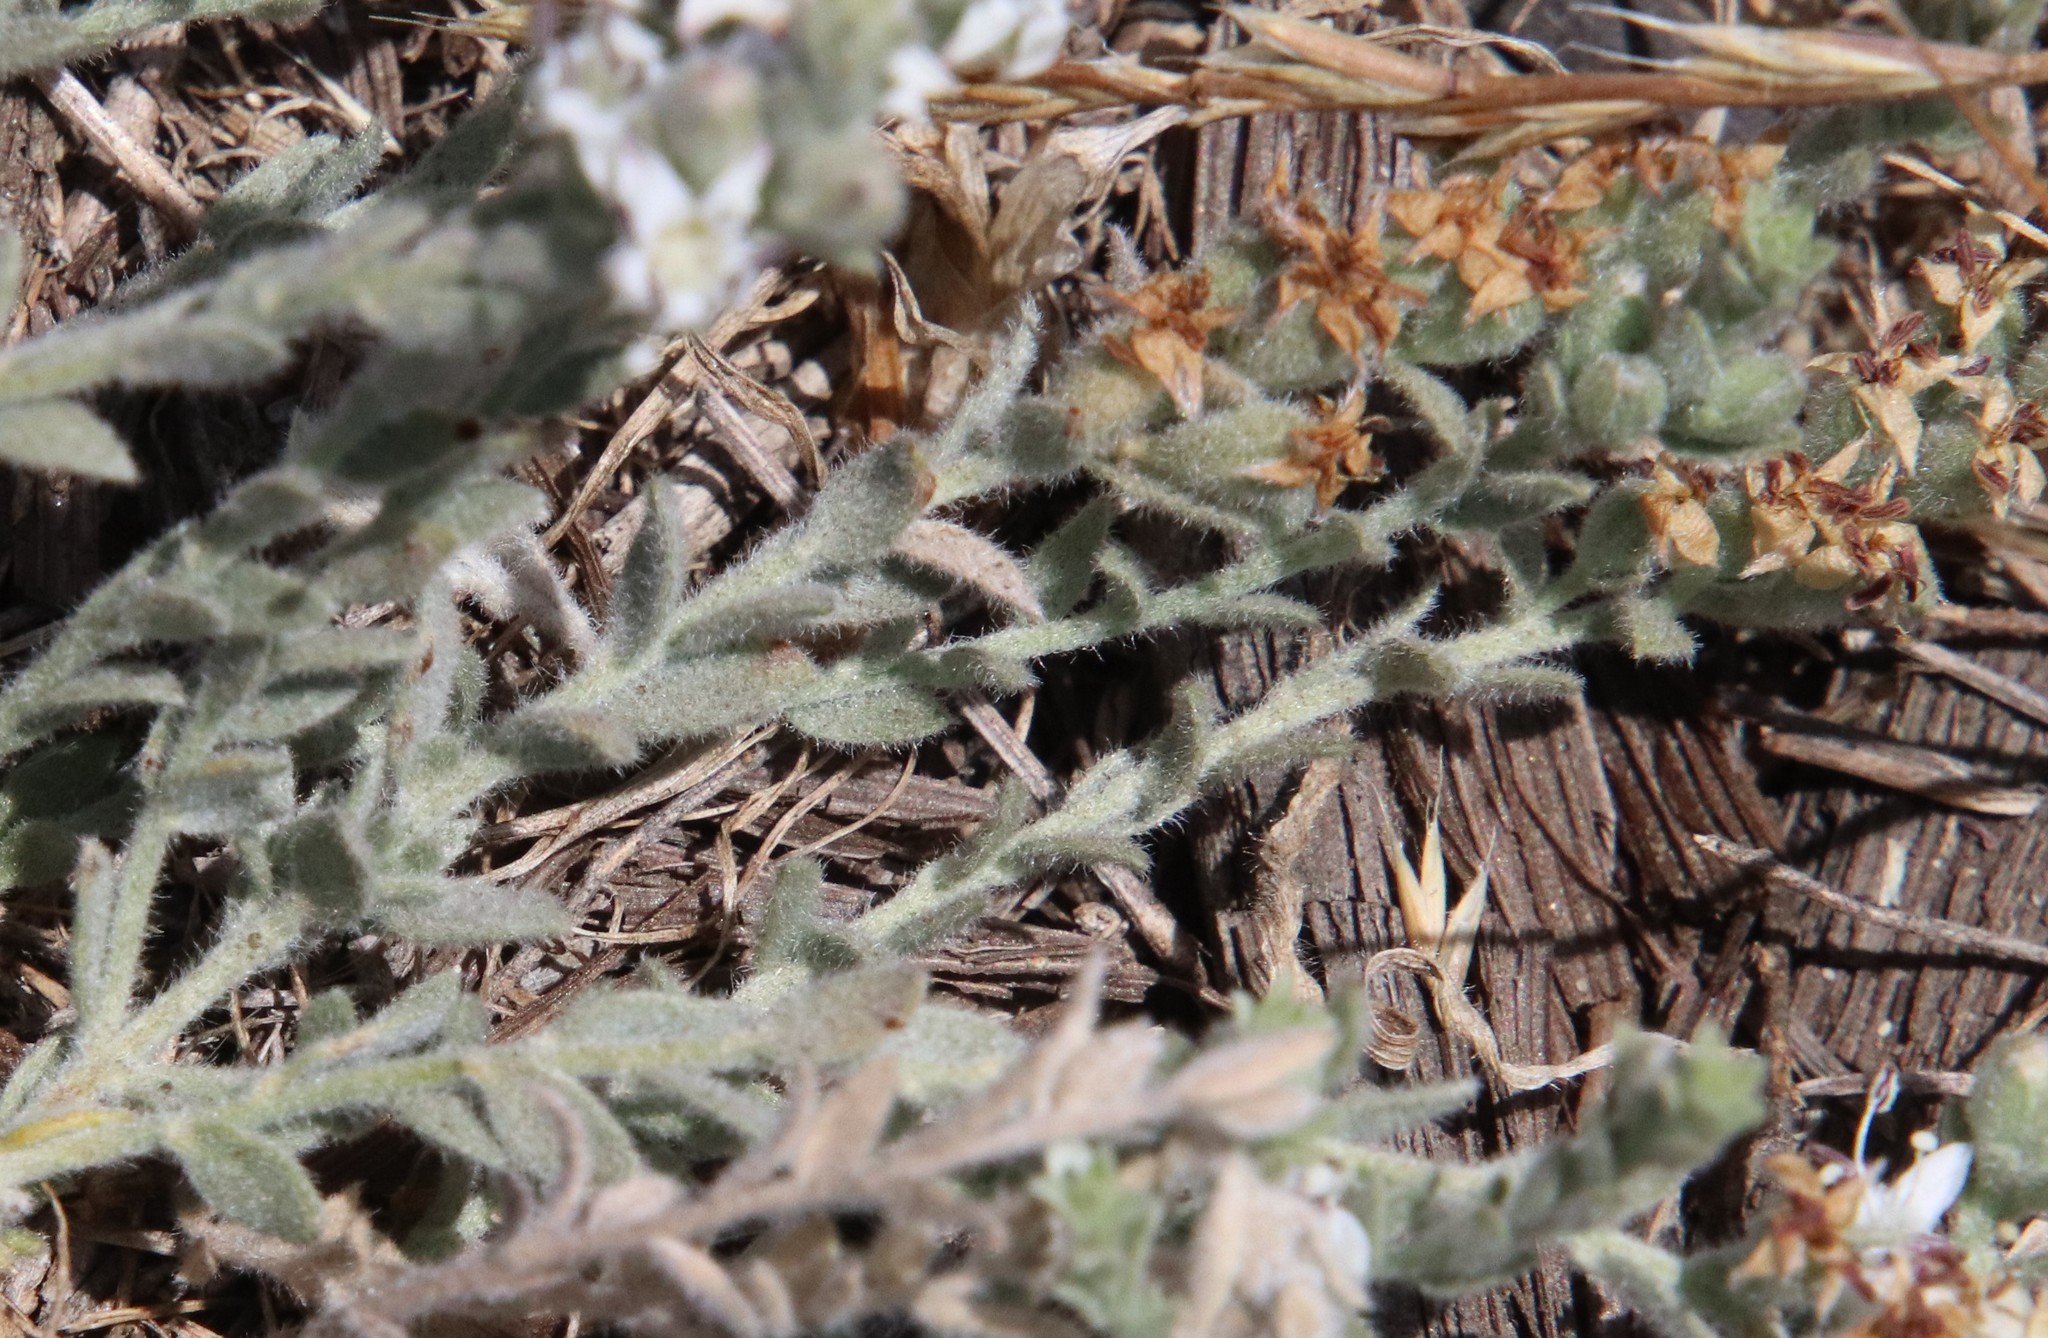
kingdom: Plantae
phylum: Tracheophyta
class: Magnoliopsida
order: Solanales
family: Convolvulaceae
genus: Cressa
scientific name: Cressa truxillensis
